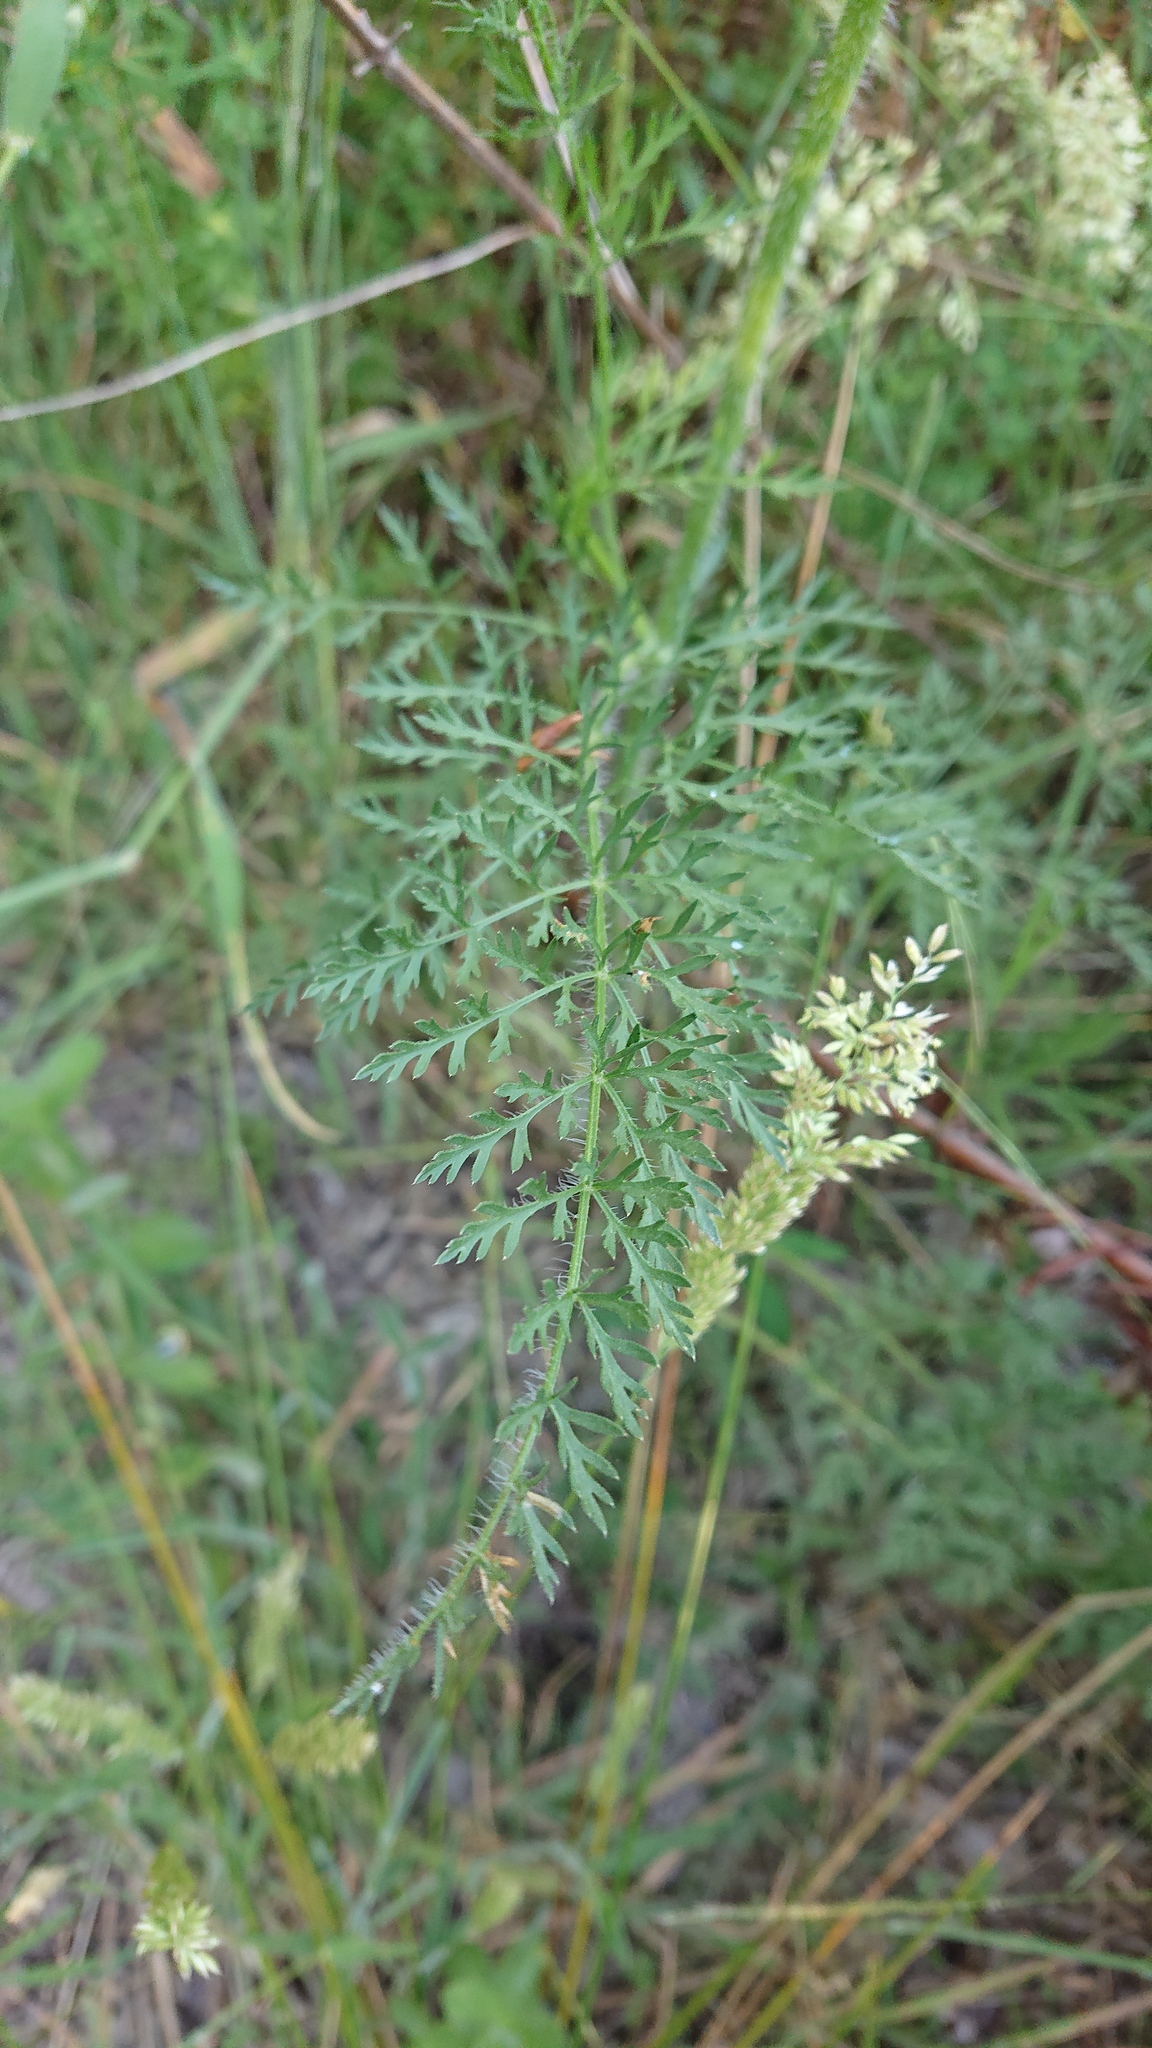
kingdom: Plantae
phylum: Tracheophyta
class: Magnoliopsida
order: Apiales
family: Apiaceae
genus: Daucus
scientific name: Daucus carota
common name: Wild carrot
